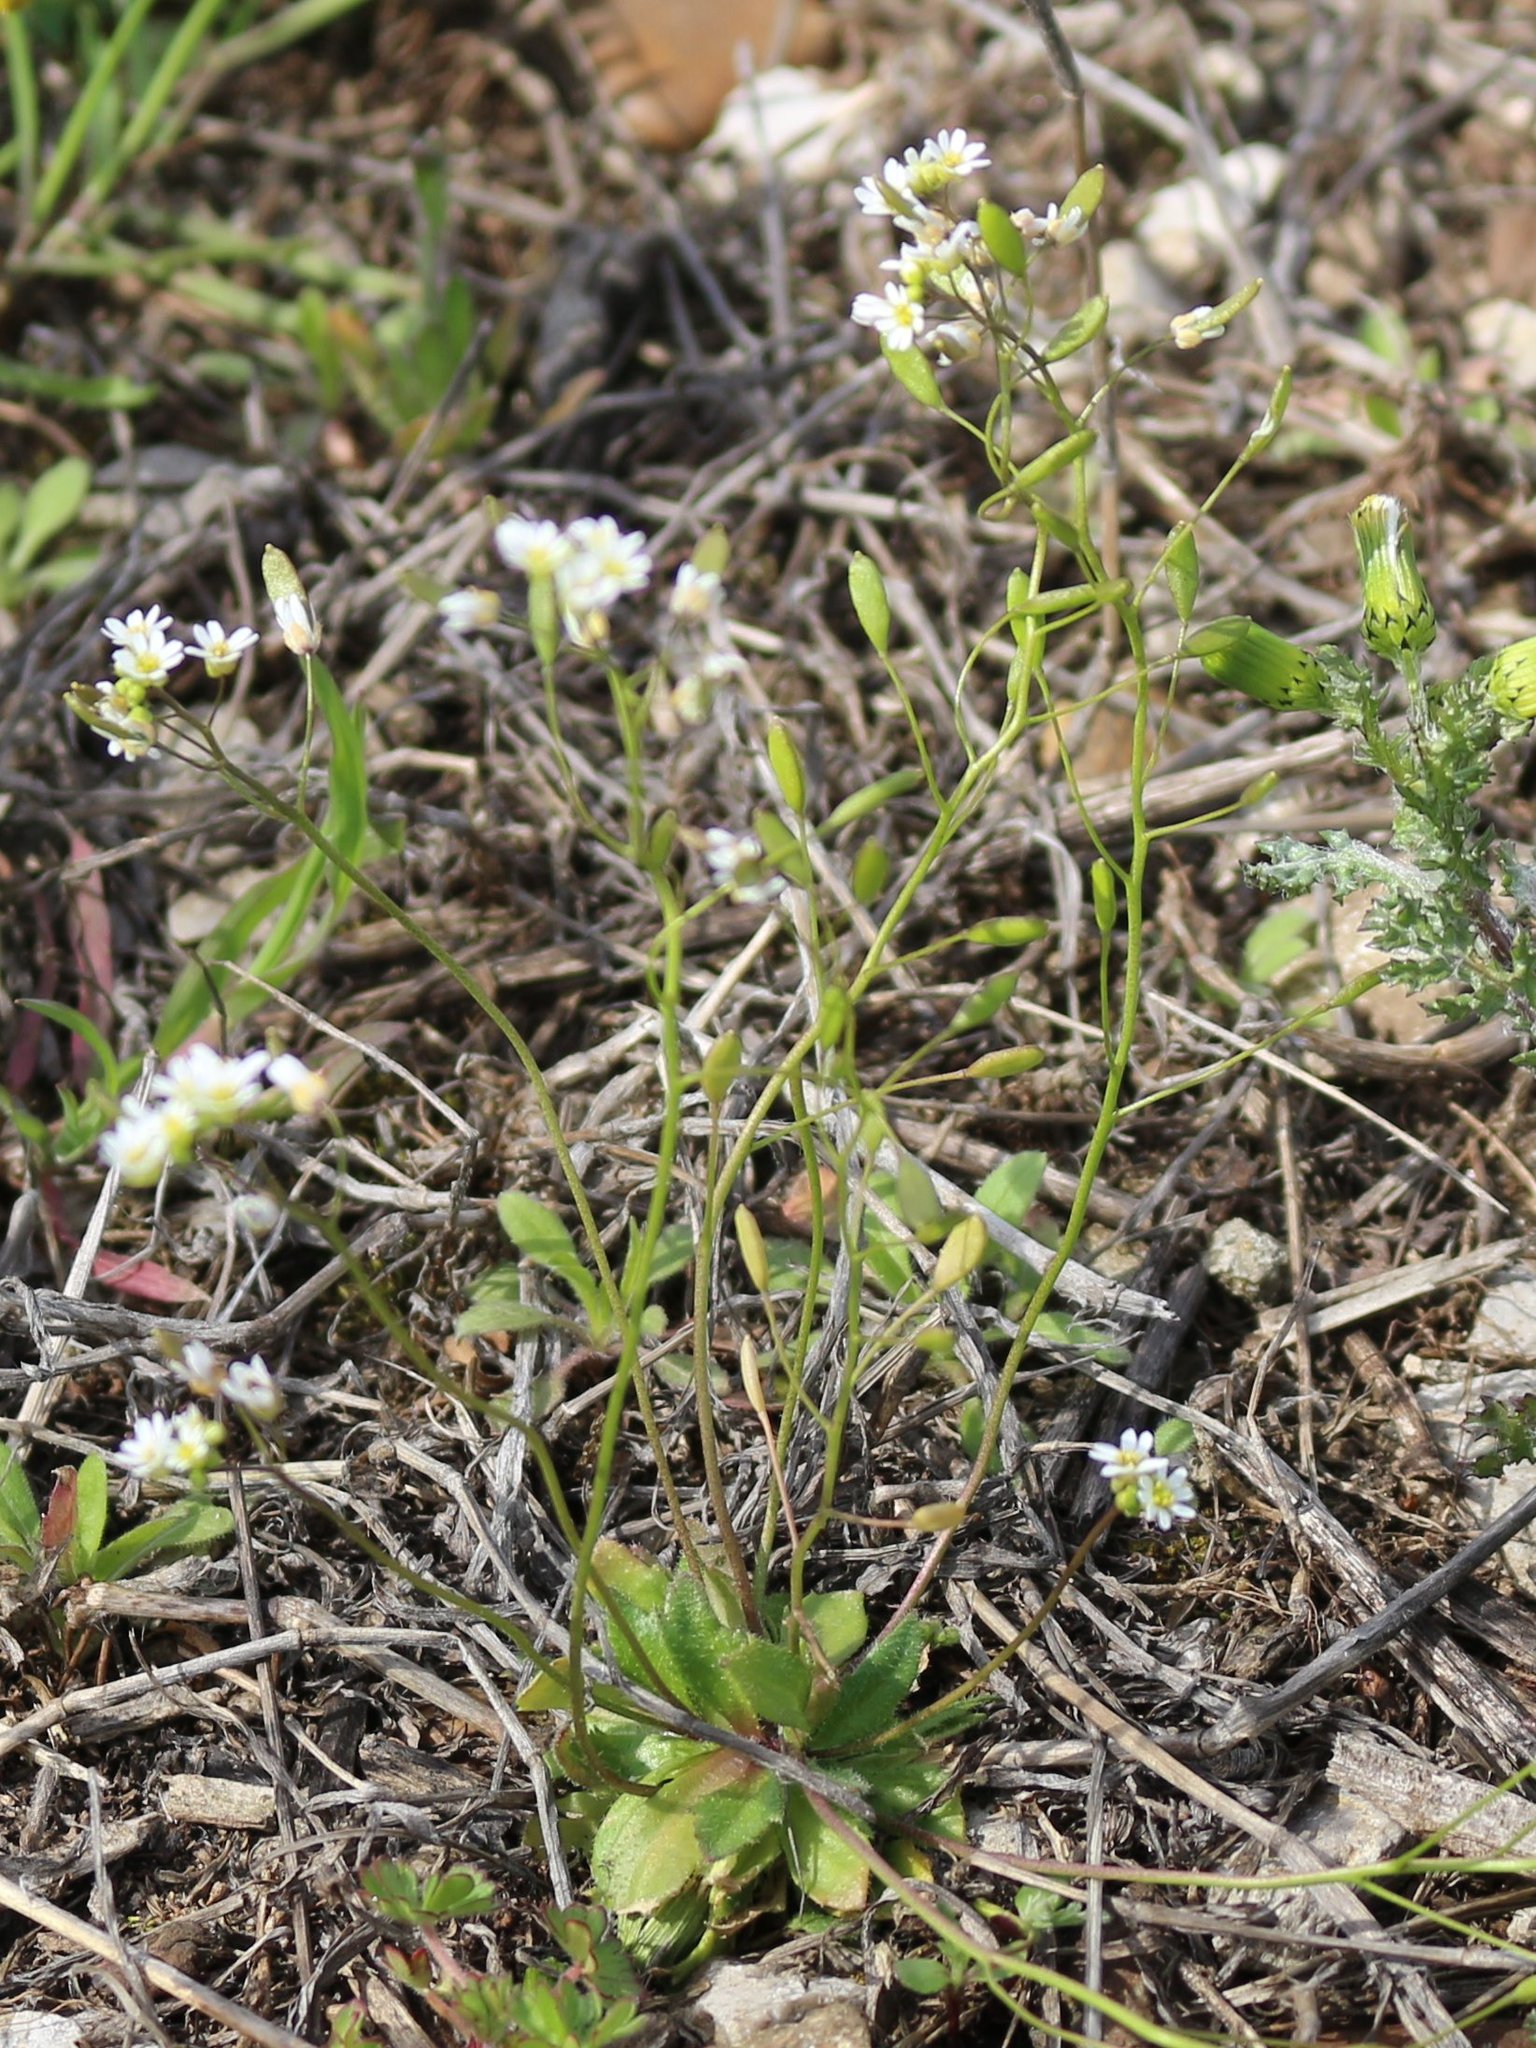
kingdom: Plantae
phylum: Tracheophyta
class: Magnoliopsida
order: Brassicales
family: Brassicaceae
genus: Draba
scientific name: Draba verna
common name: Spring draba
